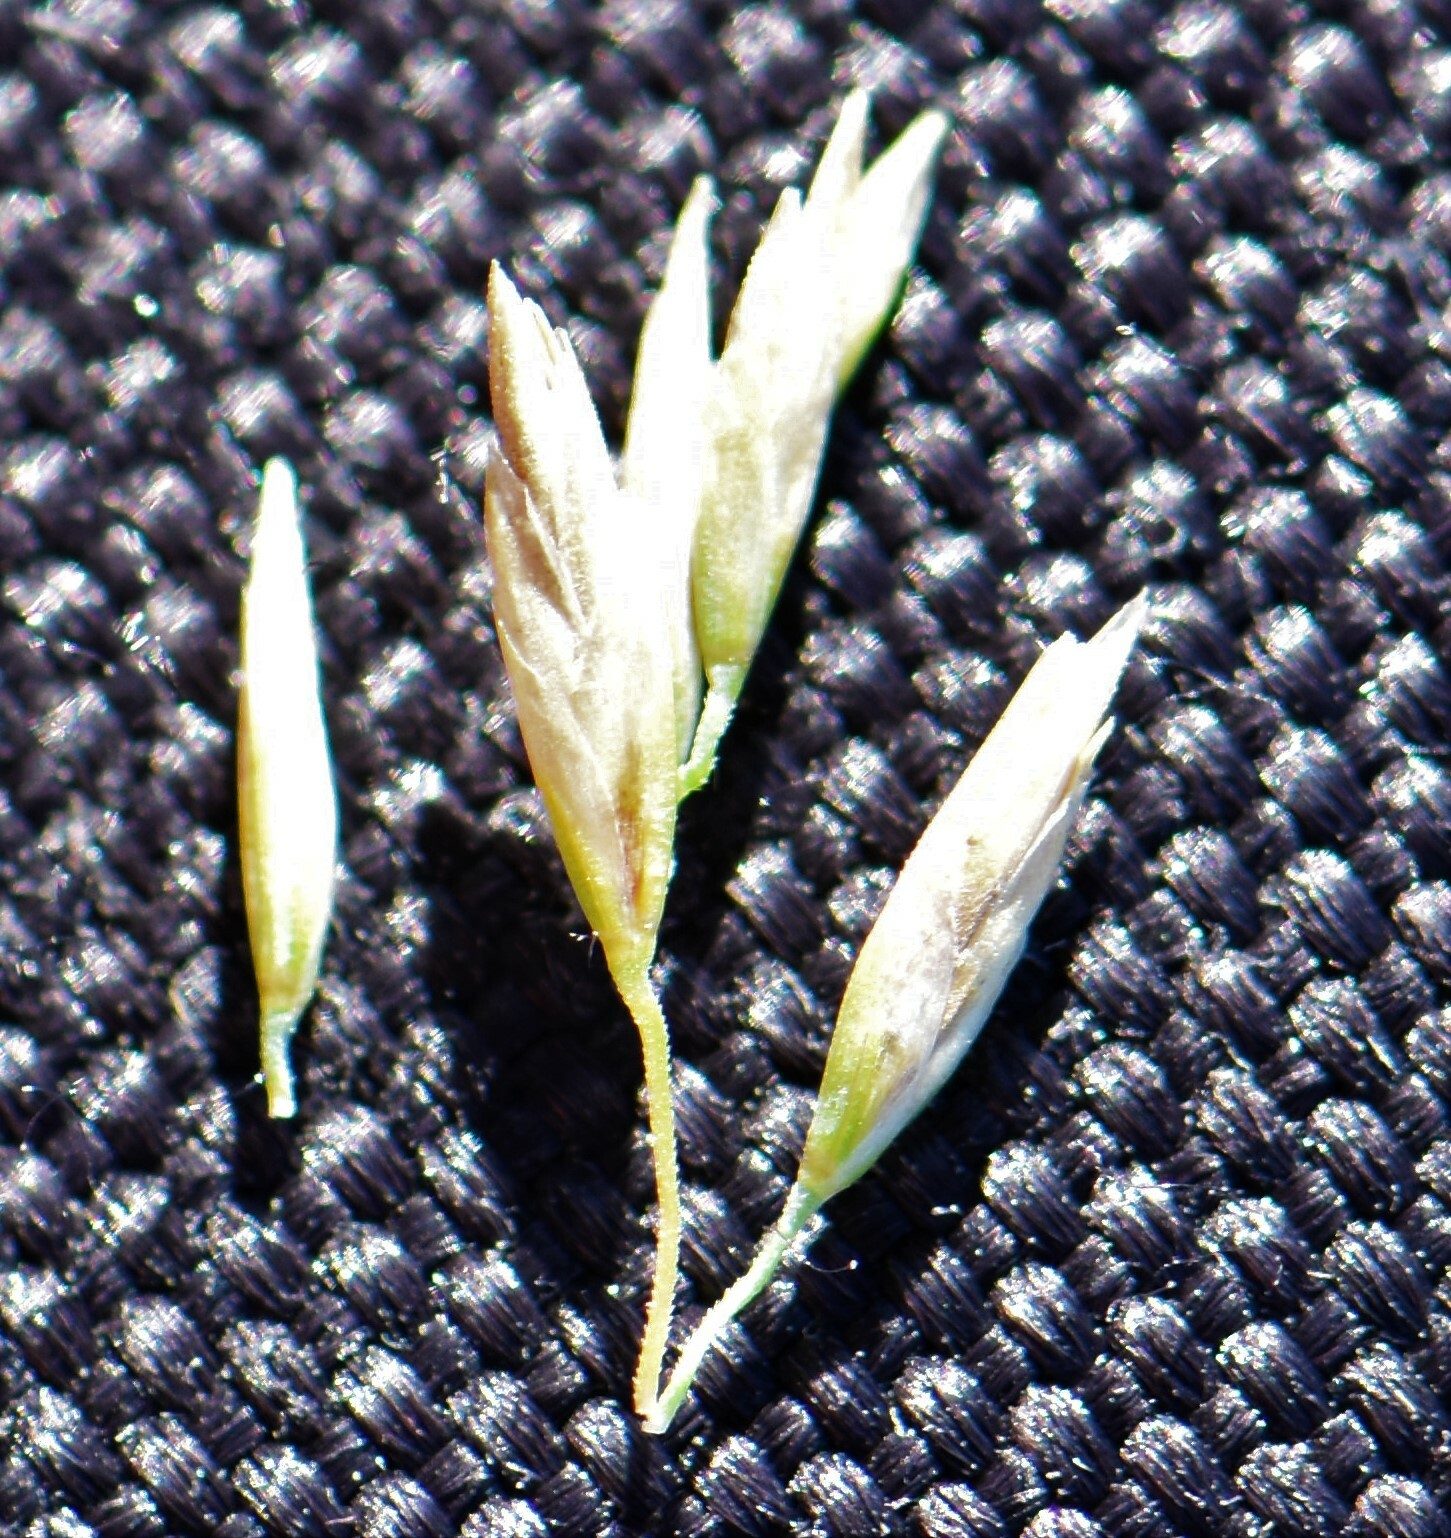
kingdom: Plantae
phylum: Tracheophyta
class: Liliopsida
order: Poales
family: Poaceae
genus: Poa
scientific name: Poa secunda
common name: Sandberg bluegrass
